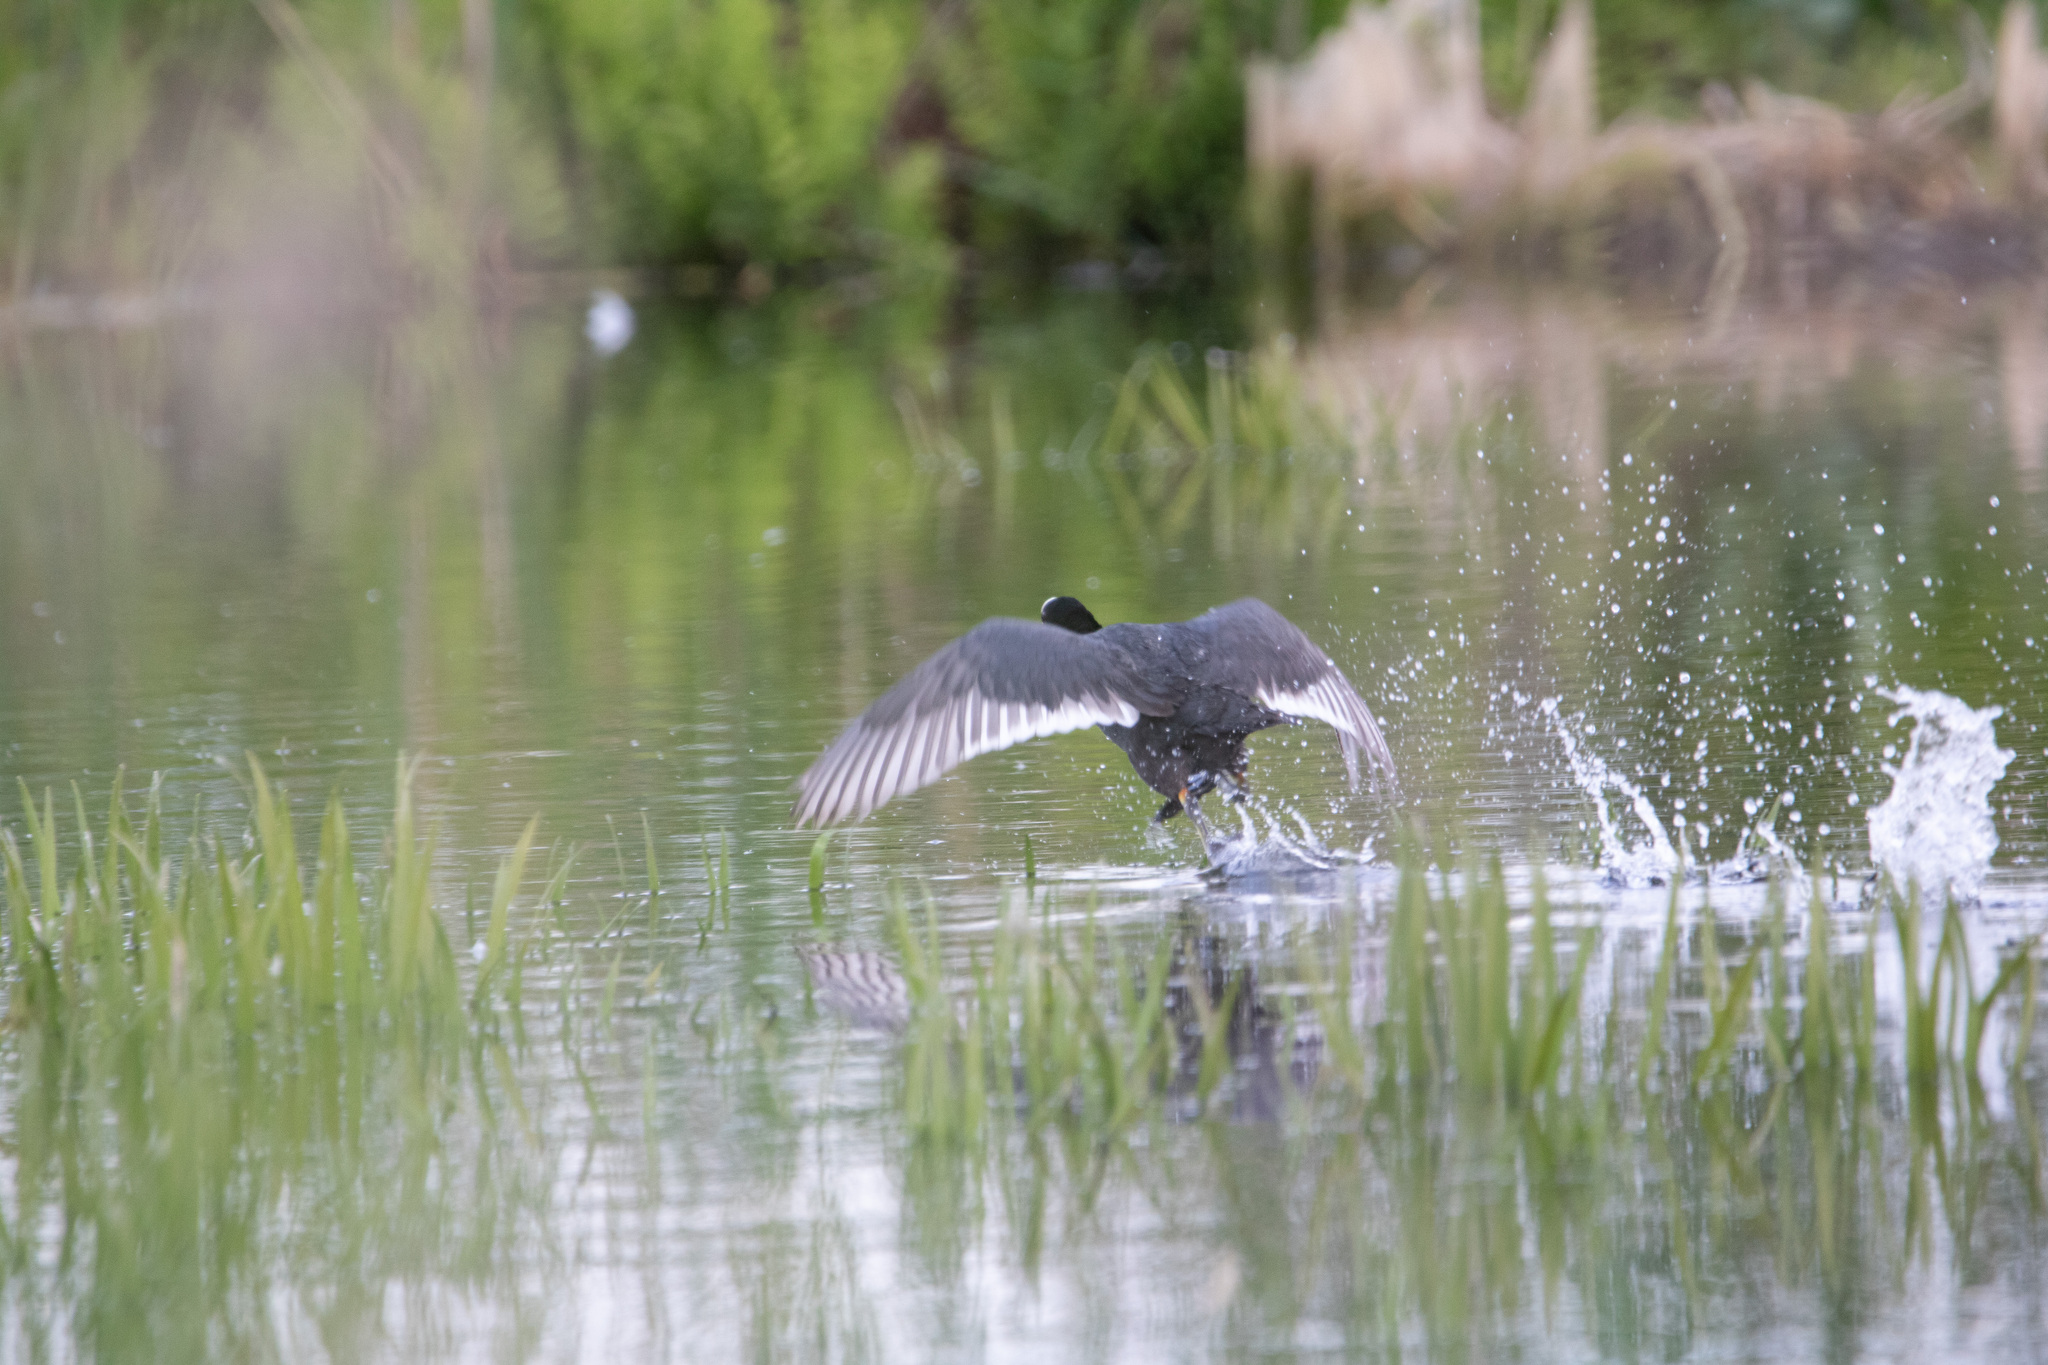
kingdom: Animalia
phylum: Chordata
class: Aves
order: Gruiformes
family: Rallidae
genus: Fulica
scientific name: Fulica atra
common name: Eurasian coot
